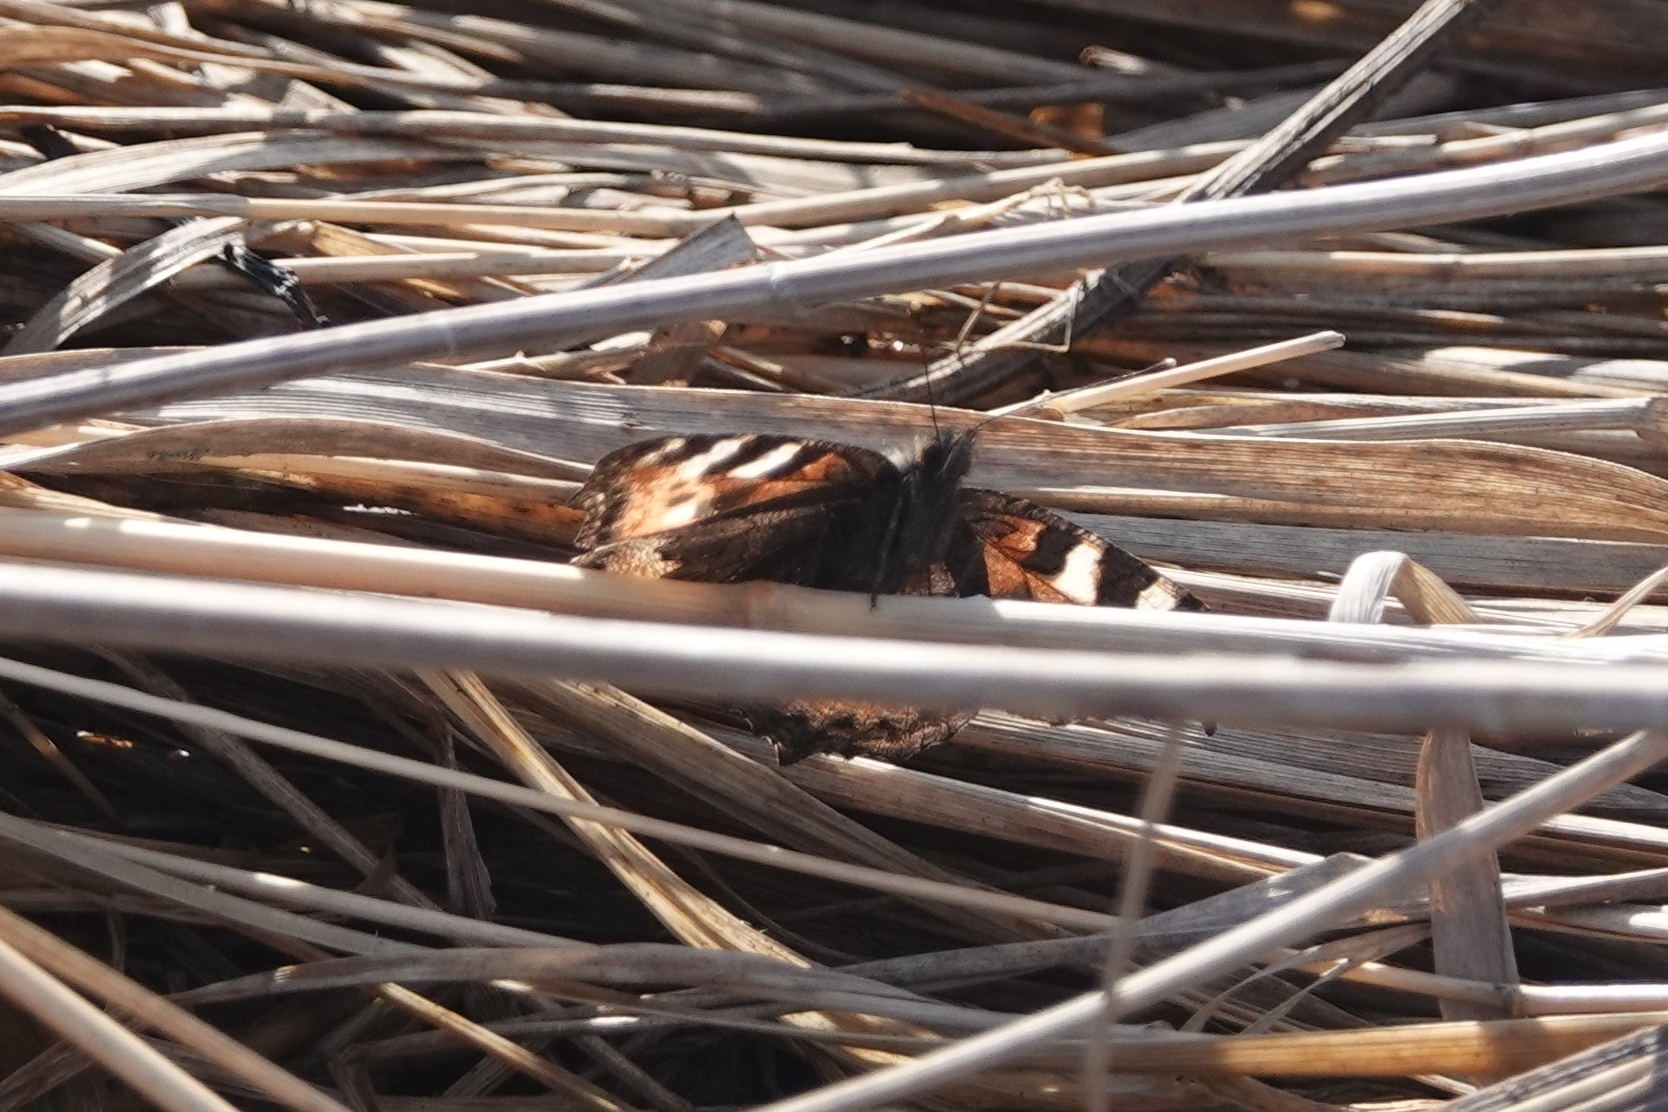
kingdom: Animalia
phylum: Arthropoda
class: Insecta
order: Lepidoptera
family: Nymphalidae
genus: Aglais
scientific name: Aglais urticae
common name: Small tortoiseshell
